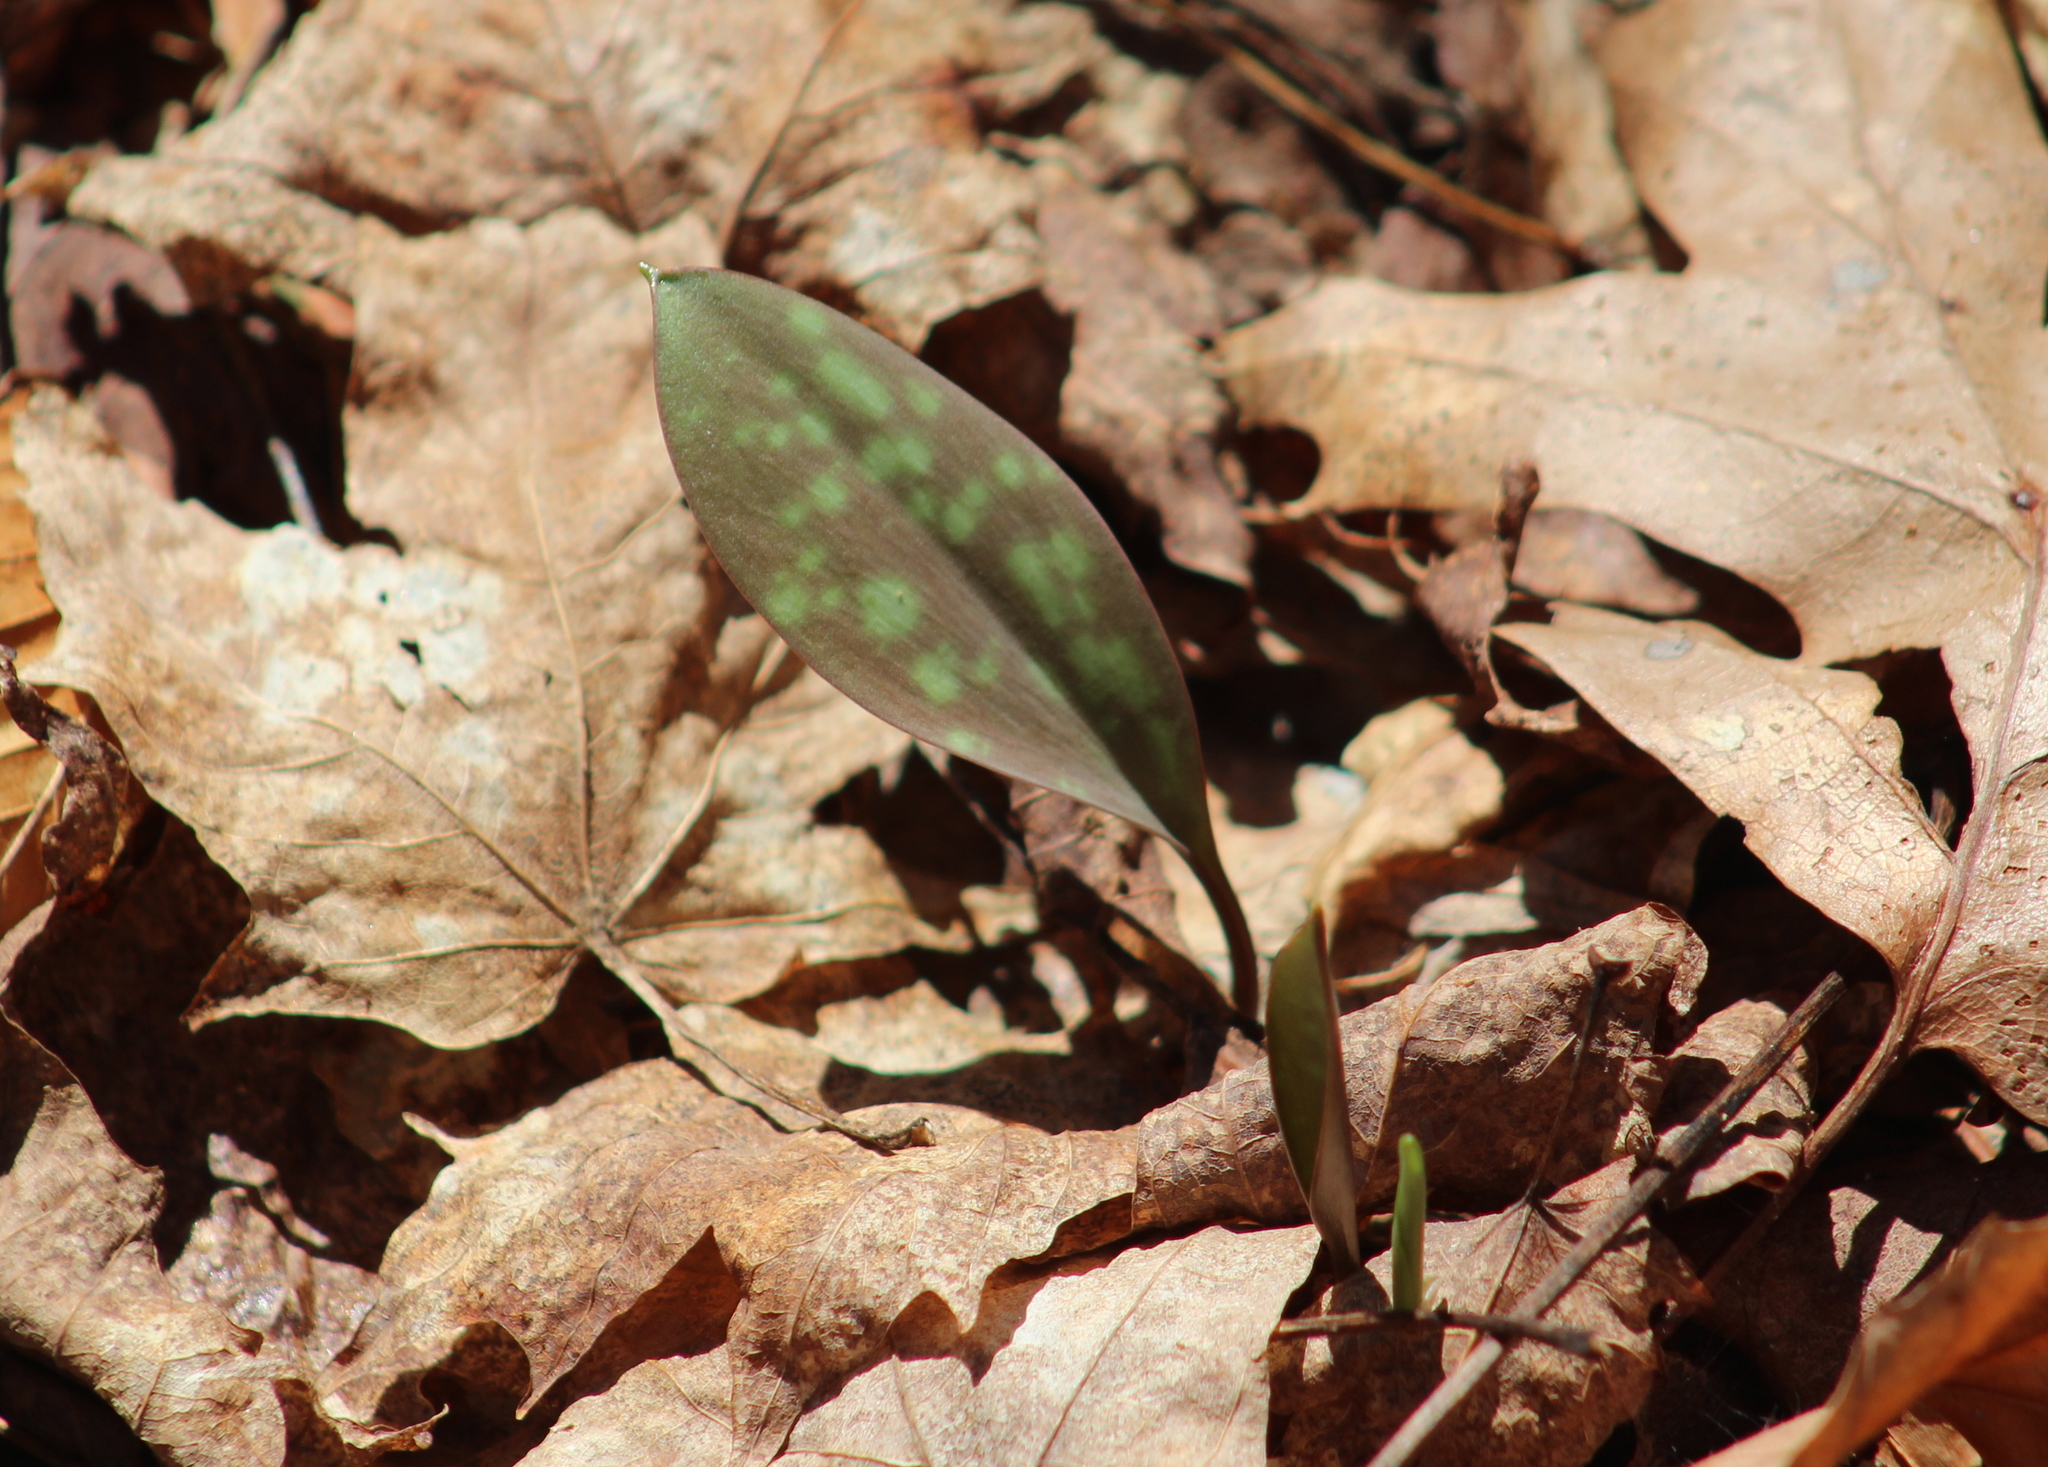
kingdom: Plantae
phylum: Tracheophyta
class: Liliopsida
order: Liliales
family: Liliaceae
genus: Erythronium
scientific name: Erythronium americanum
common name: Yellow adder's-tongue
